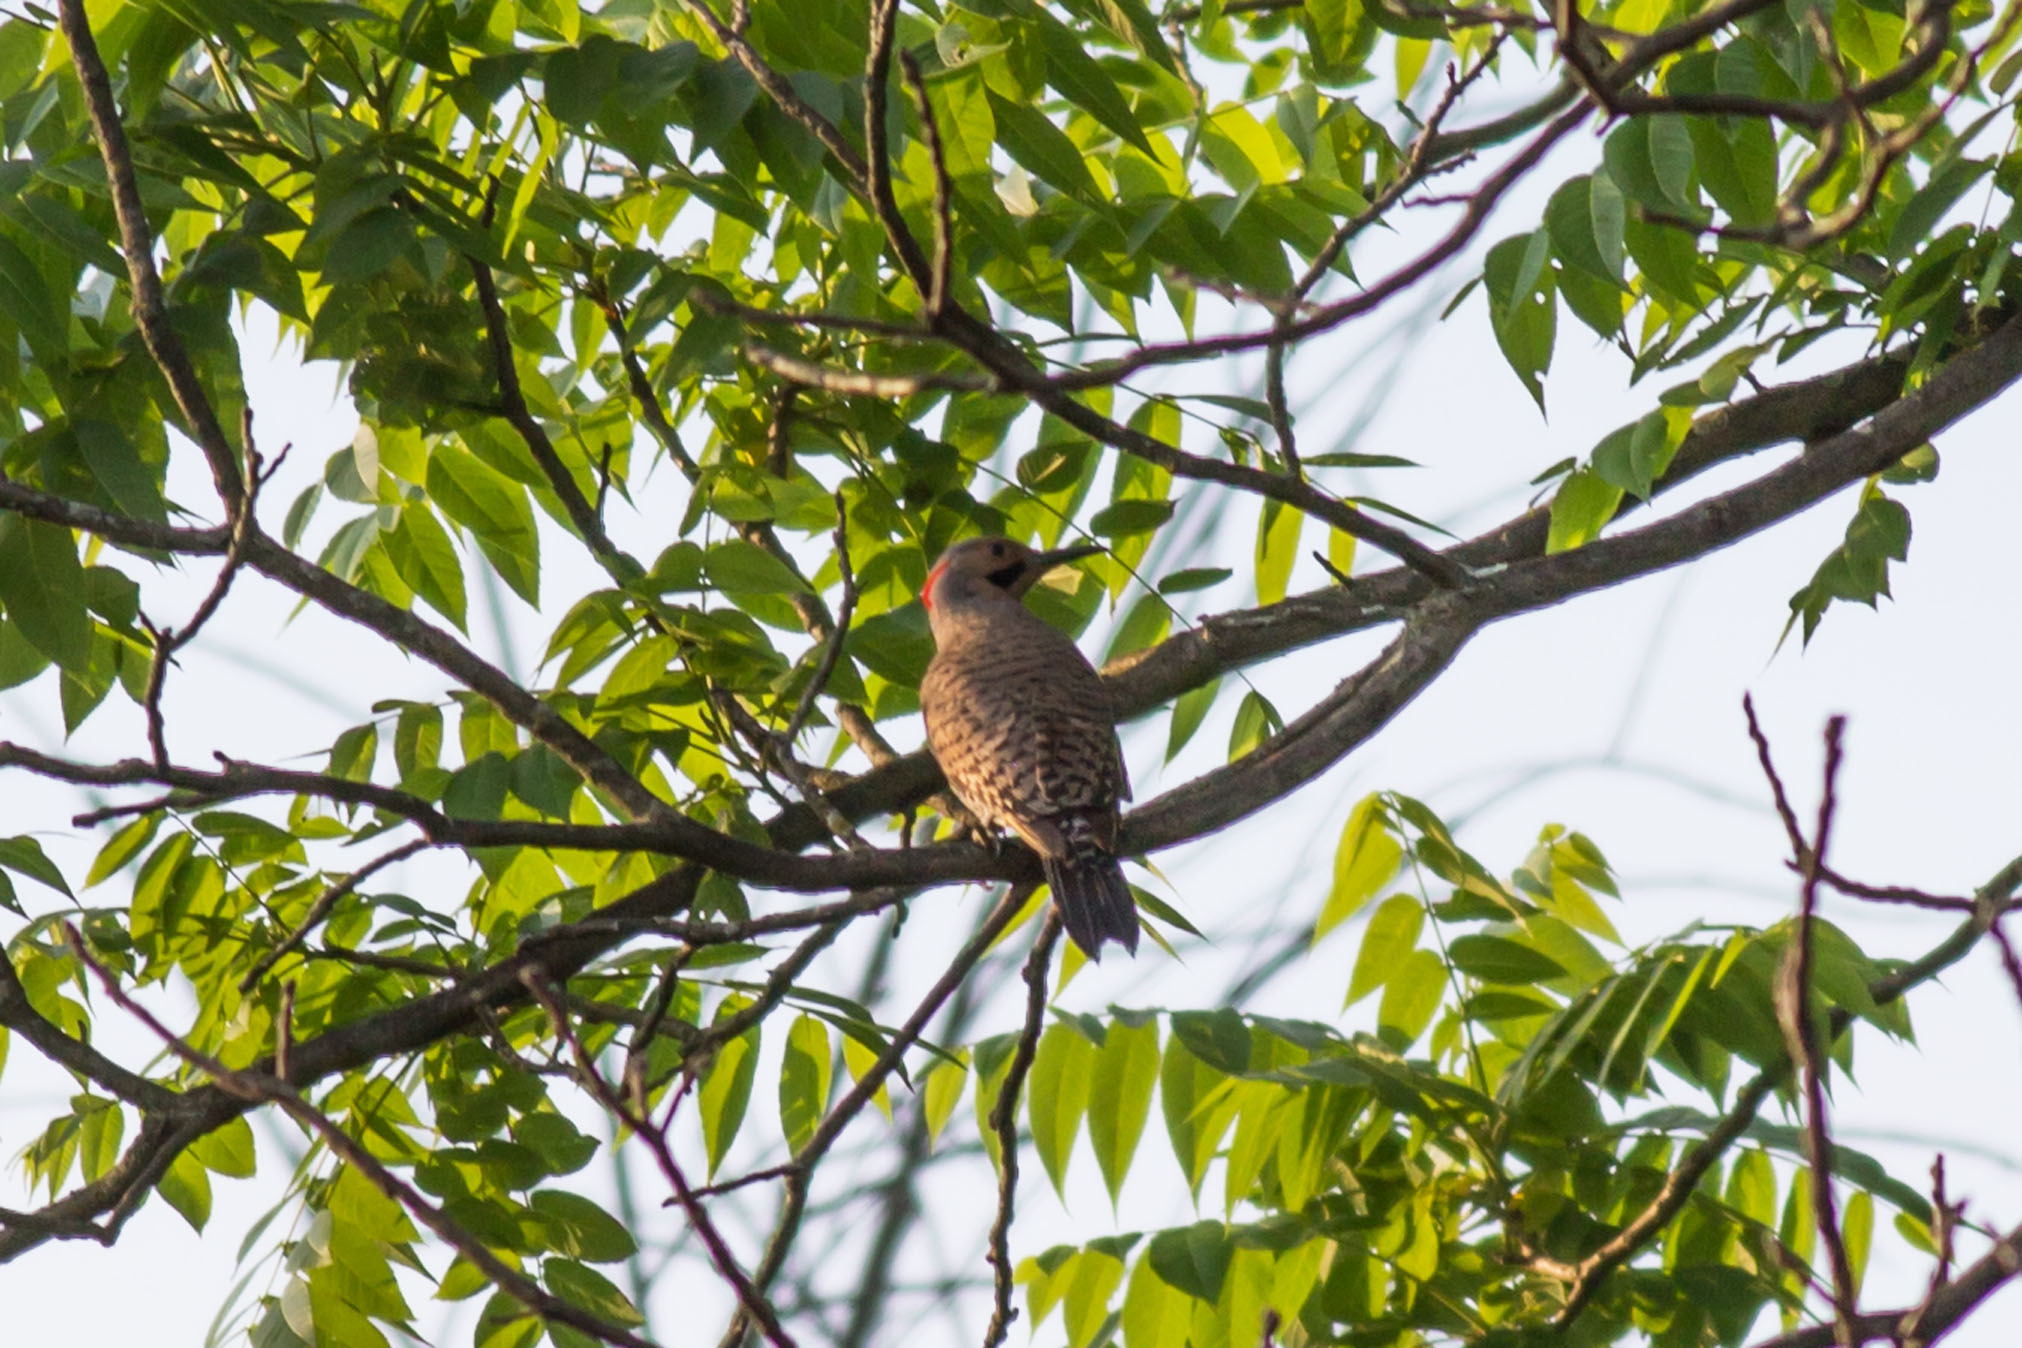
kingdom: Animalia
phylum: Chordata
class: Aves
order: Piciformes
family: Picidae
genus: Colaptes
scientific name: Colaptes auratus
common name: Northern flicker
